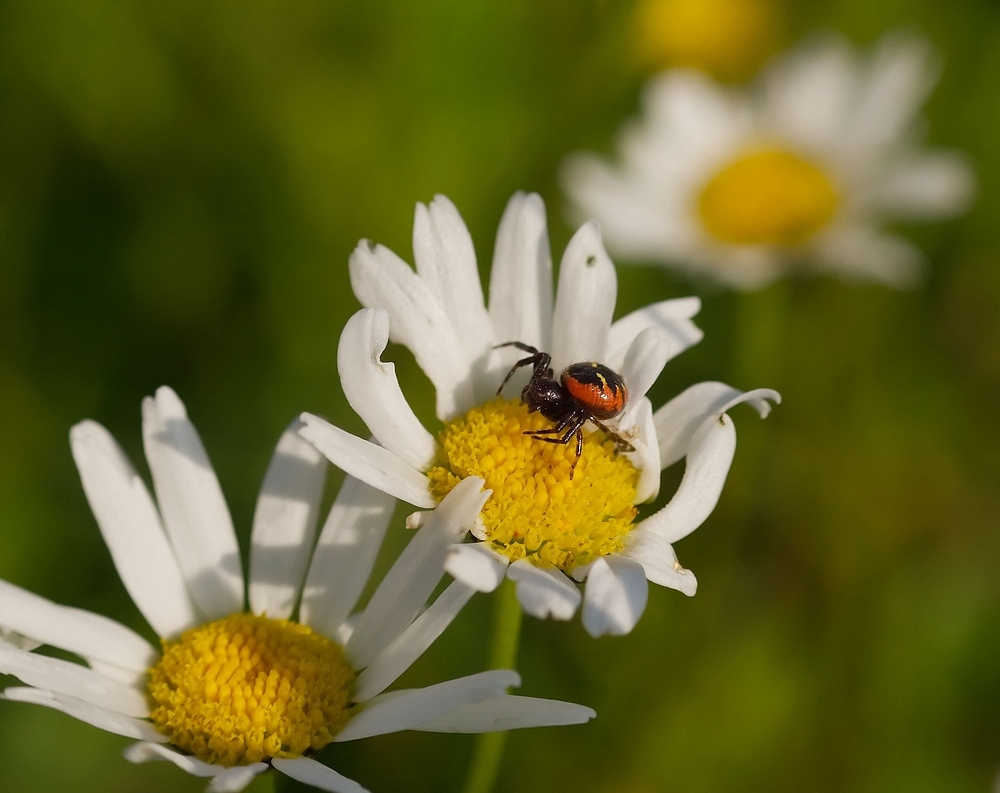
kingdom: Animalia
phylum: Arthropoda
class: Arachnida
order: Araneae
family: Thomisidae
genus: Synema
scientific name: Synema globosum
